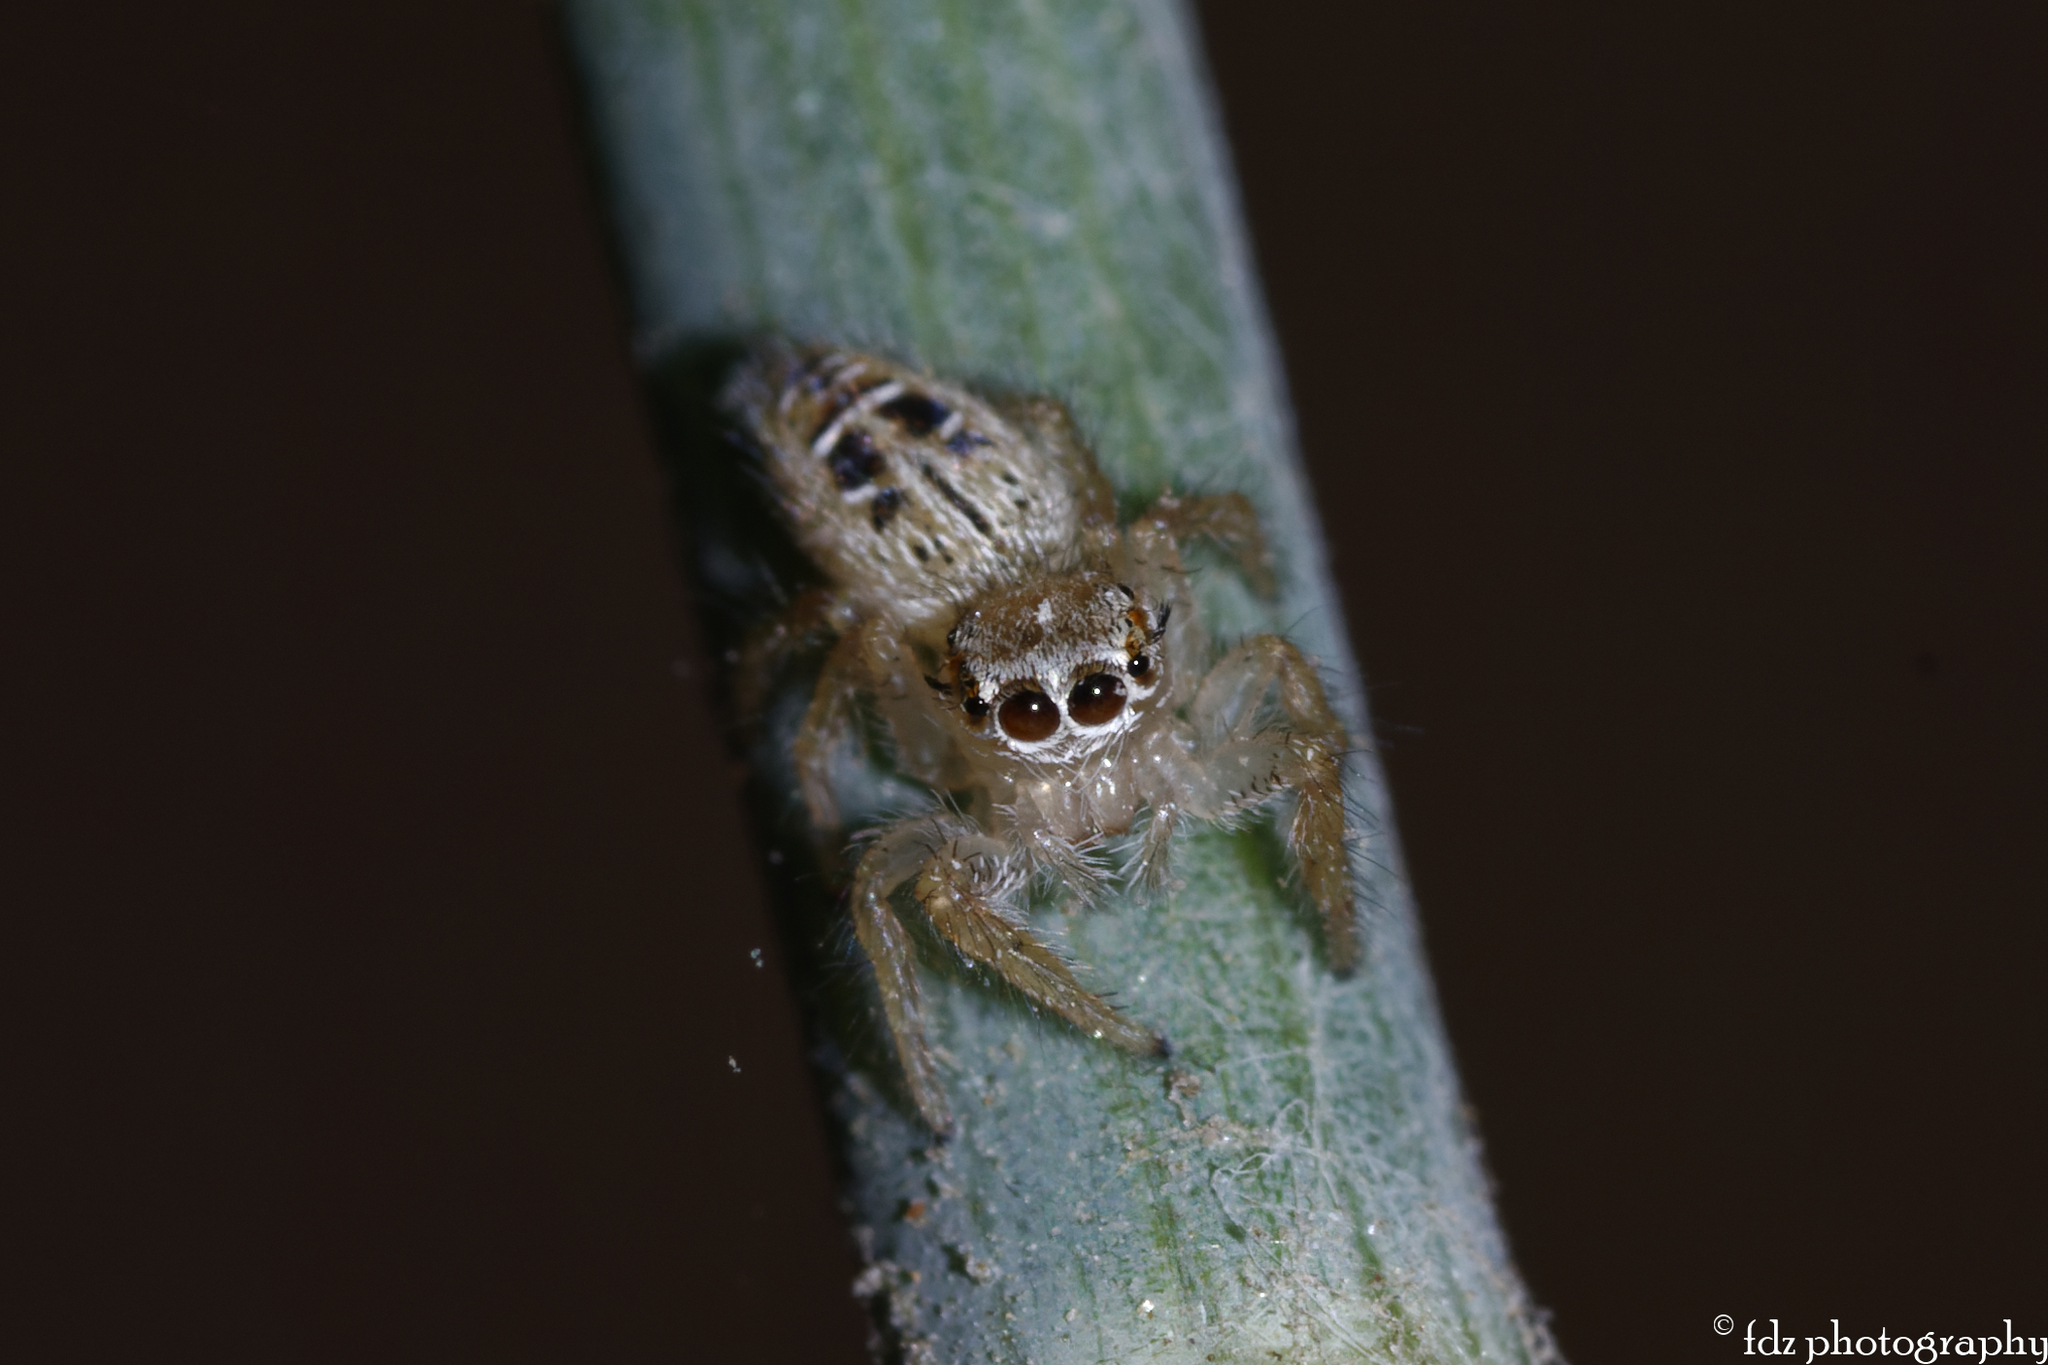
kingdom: Animalia
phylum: Arthropoda
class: Arachnida
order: Araneae
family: Salticidae
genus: Thyene
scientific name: Thyene imperialis
